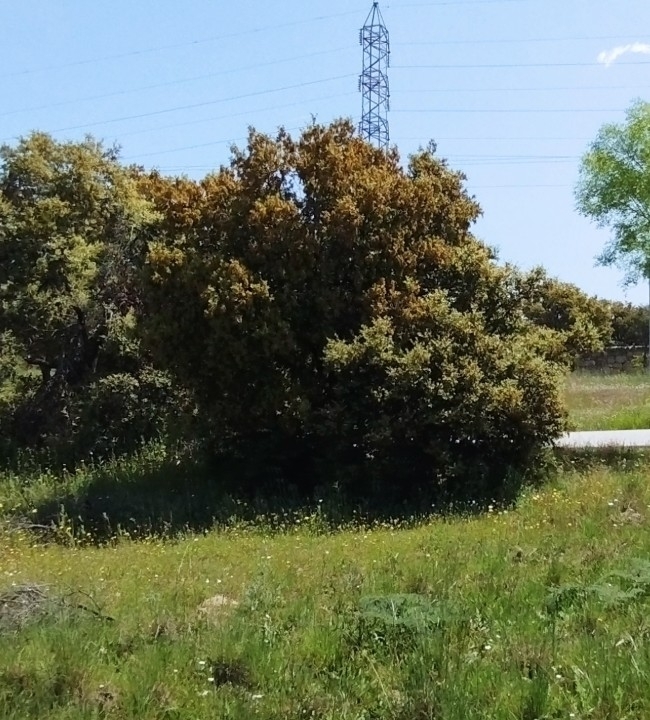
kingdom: Plantae
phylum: Tracheophyta
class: Magnoliopsida
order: Fagales
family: Fagaceae
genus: Quercus
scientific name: Quercus rotundifolia
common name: Holm oak
